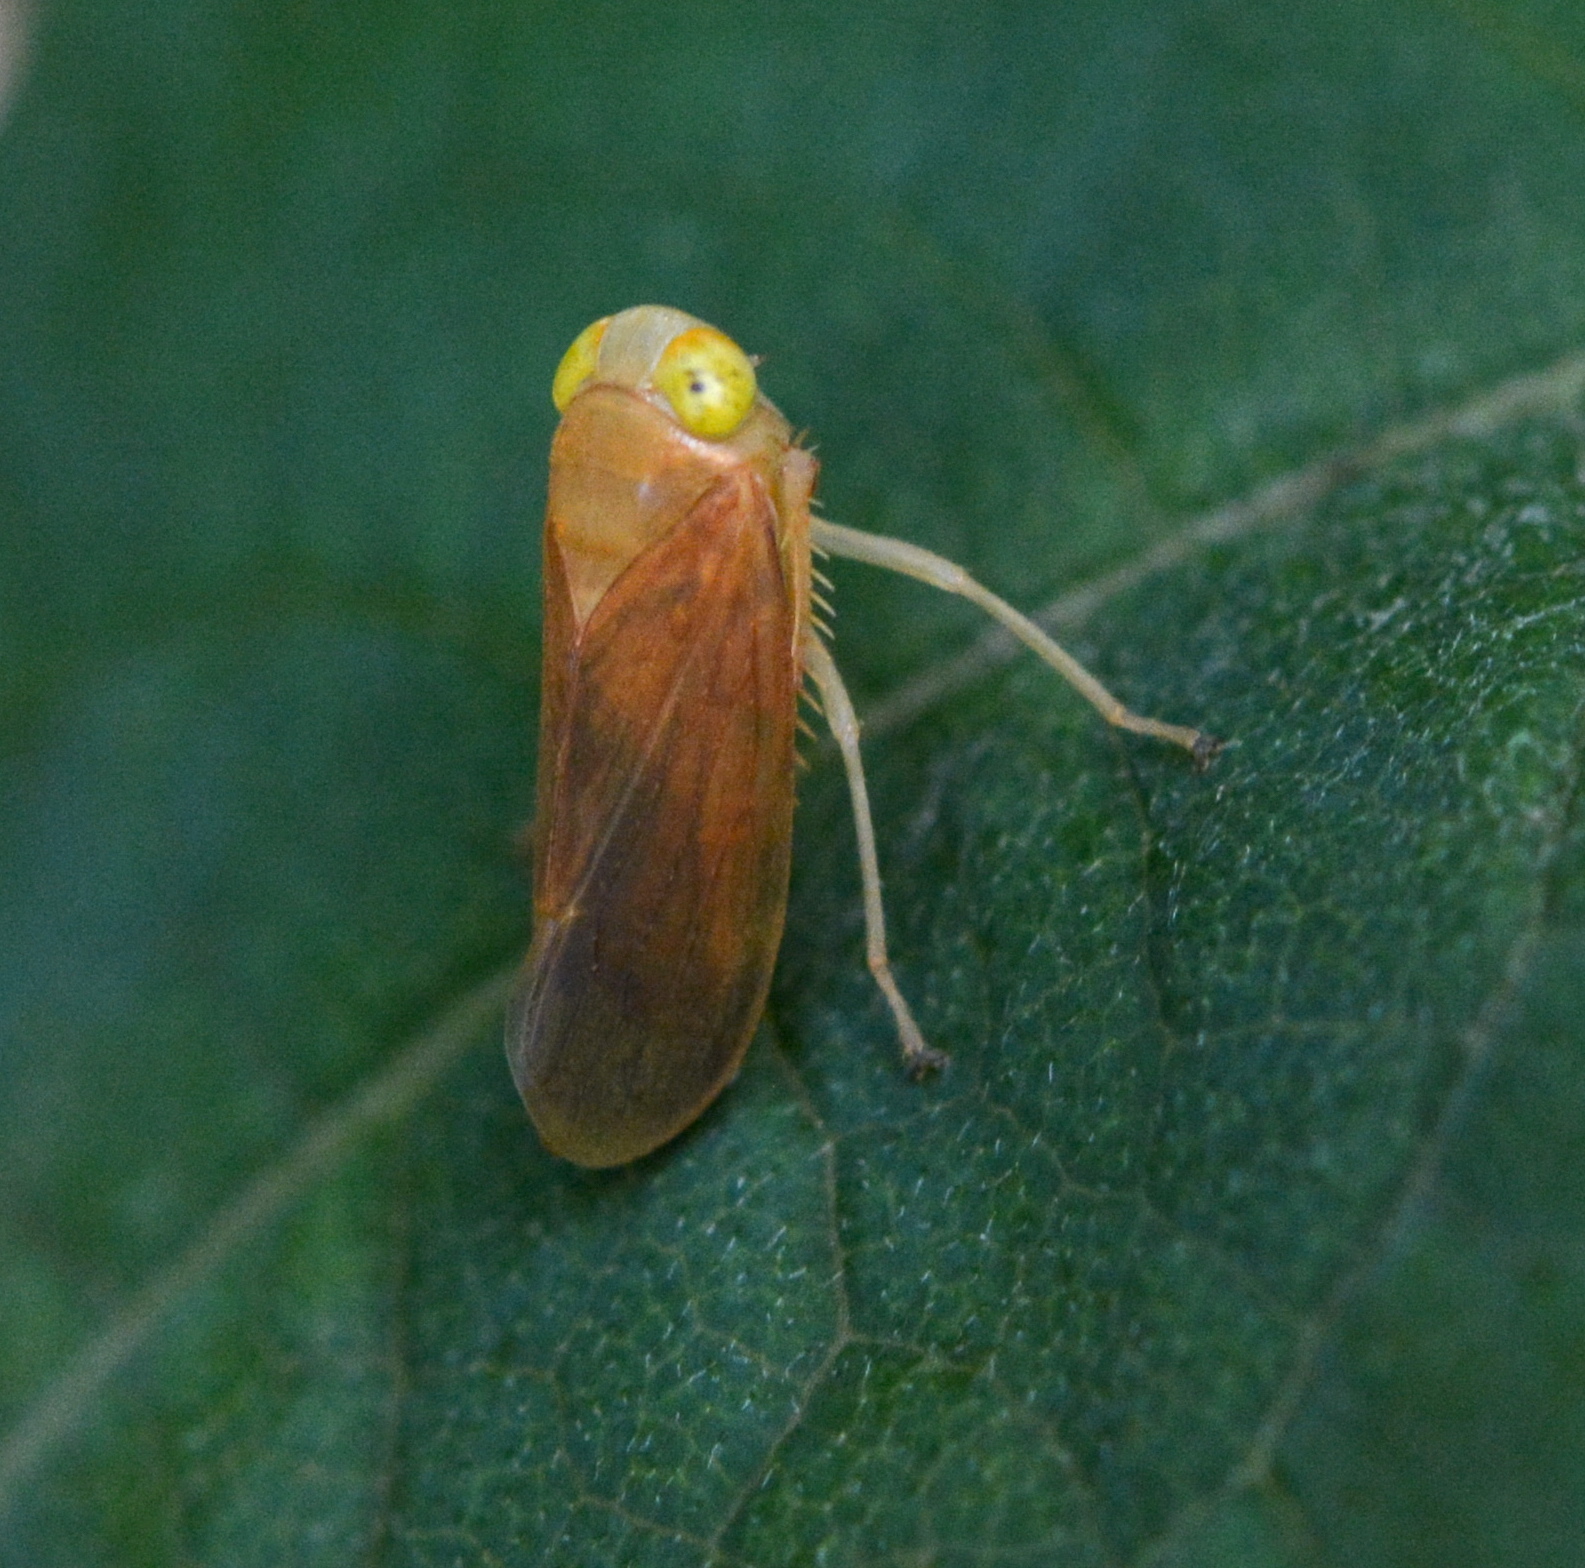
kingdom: Animalia
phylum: Arthropoda
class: Insecta
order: Hemiptera
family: Cicadellidae
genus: Jikradia
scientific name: Jikradia olitoria
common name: Coppery leafhopper
